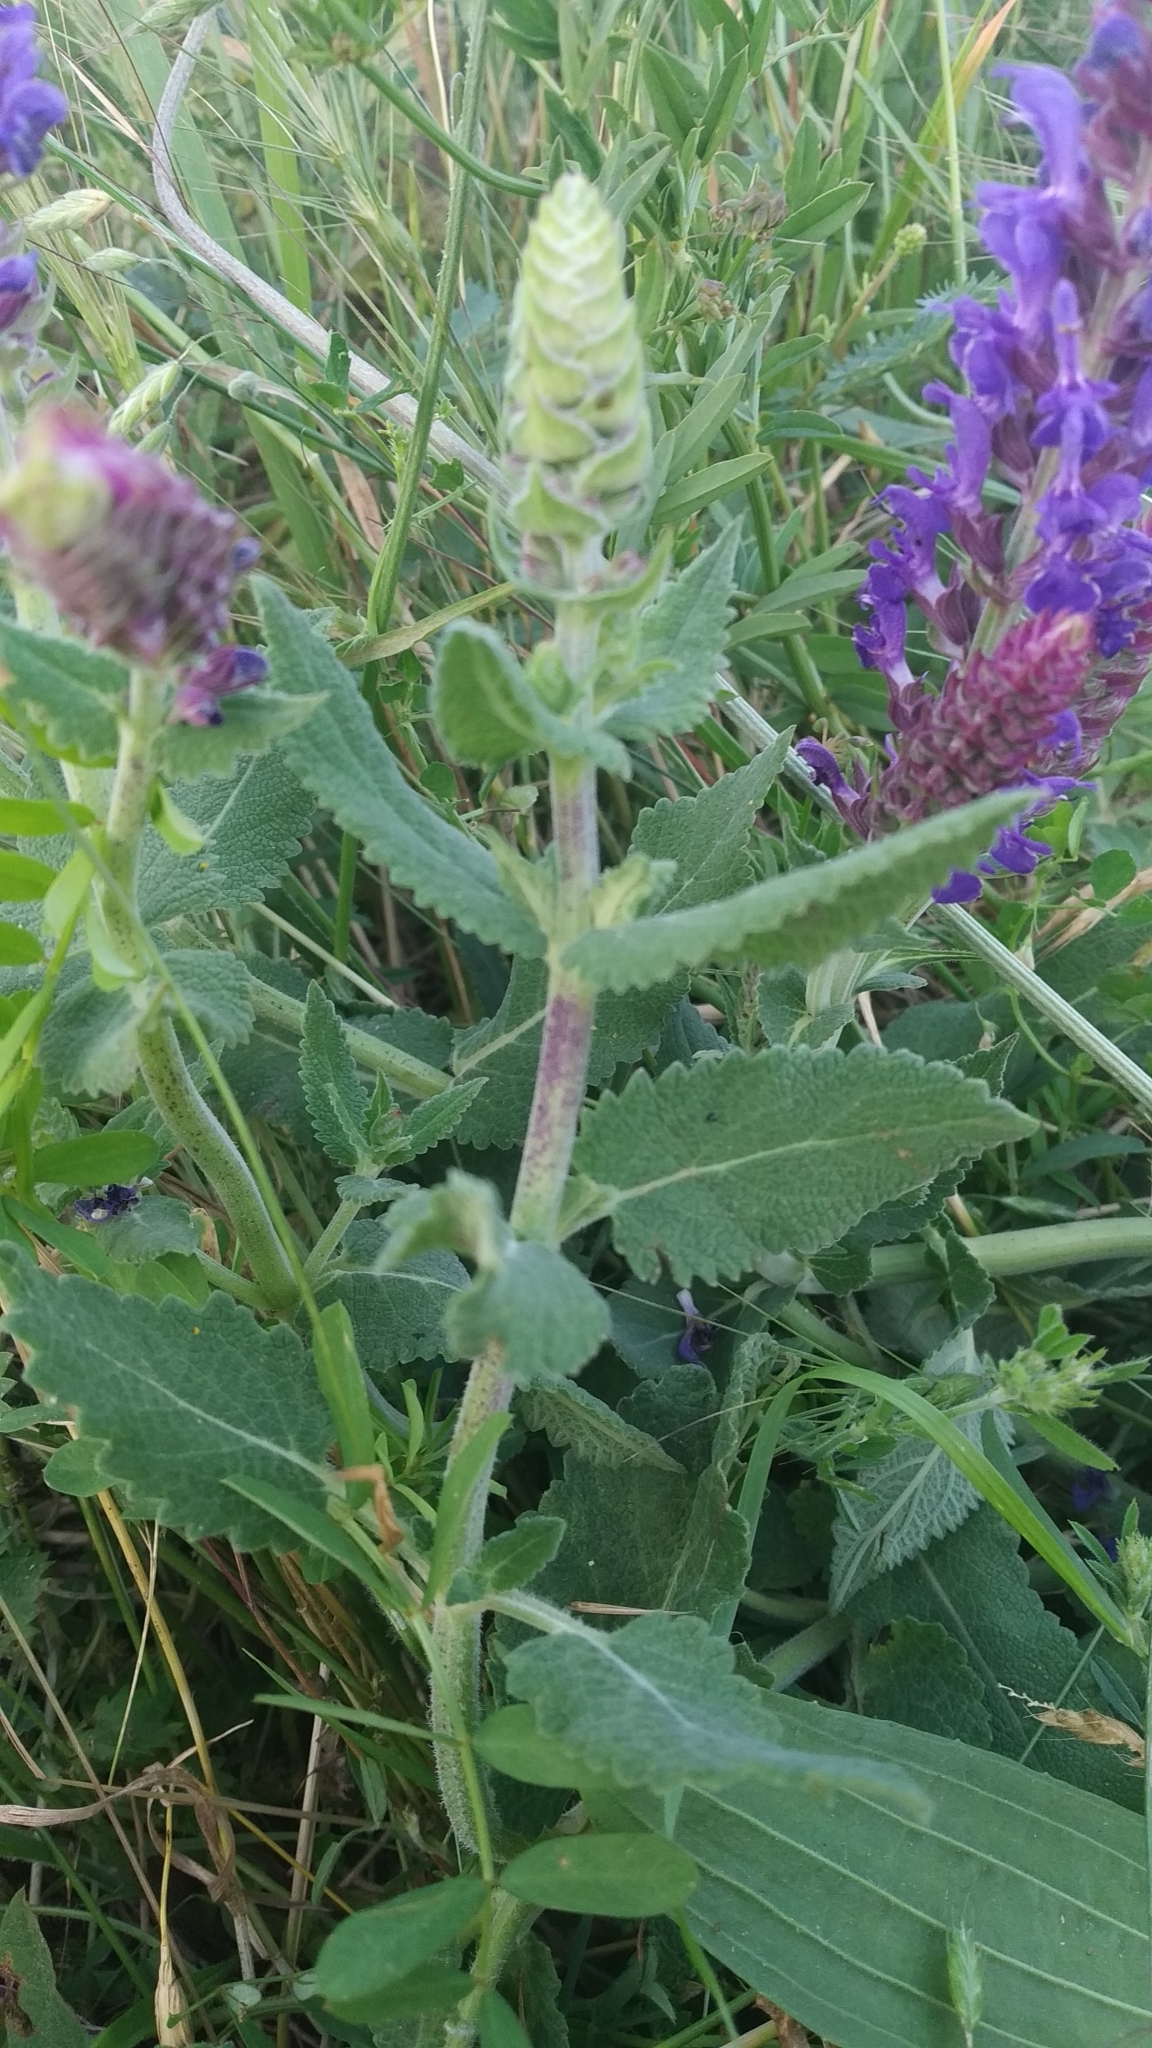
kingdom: Plantae
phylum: Tracheophyta
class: Magnoliopsida
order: Lamiales
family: Lamiaceae
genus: Salvia
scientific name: Salvia nemorosa
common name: Balkan clary
